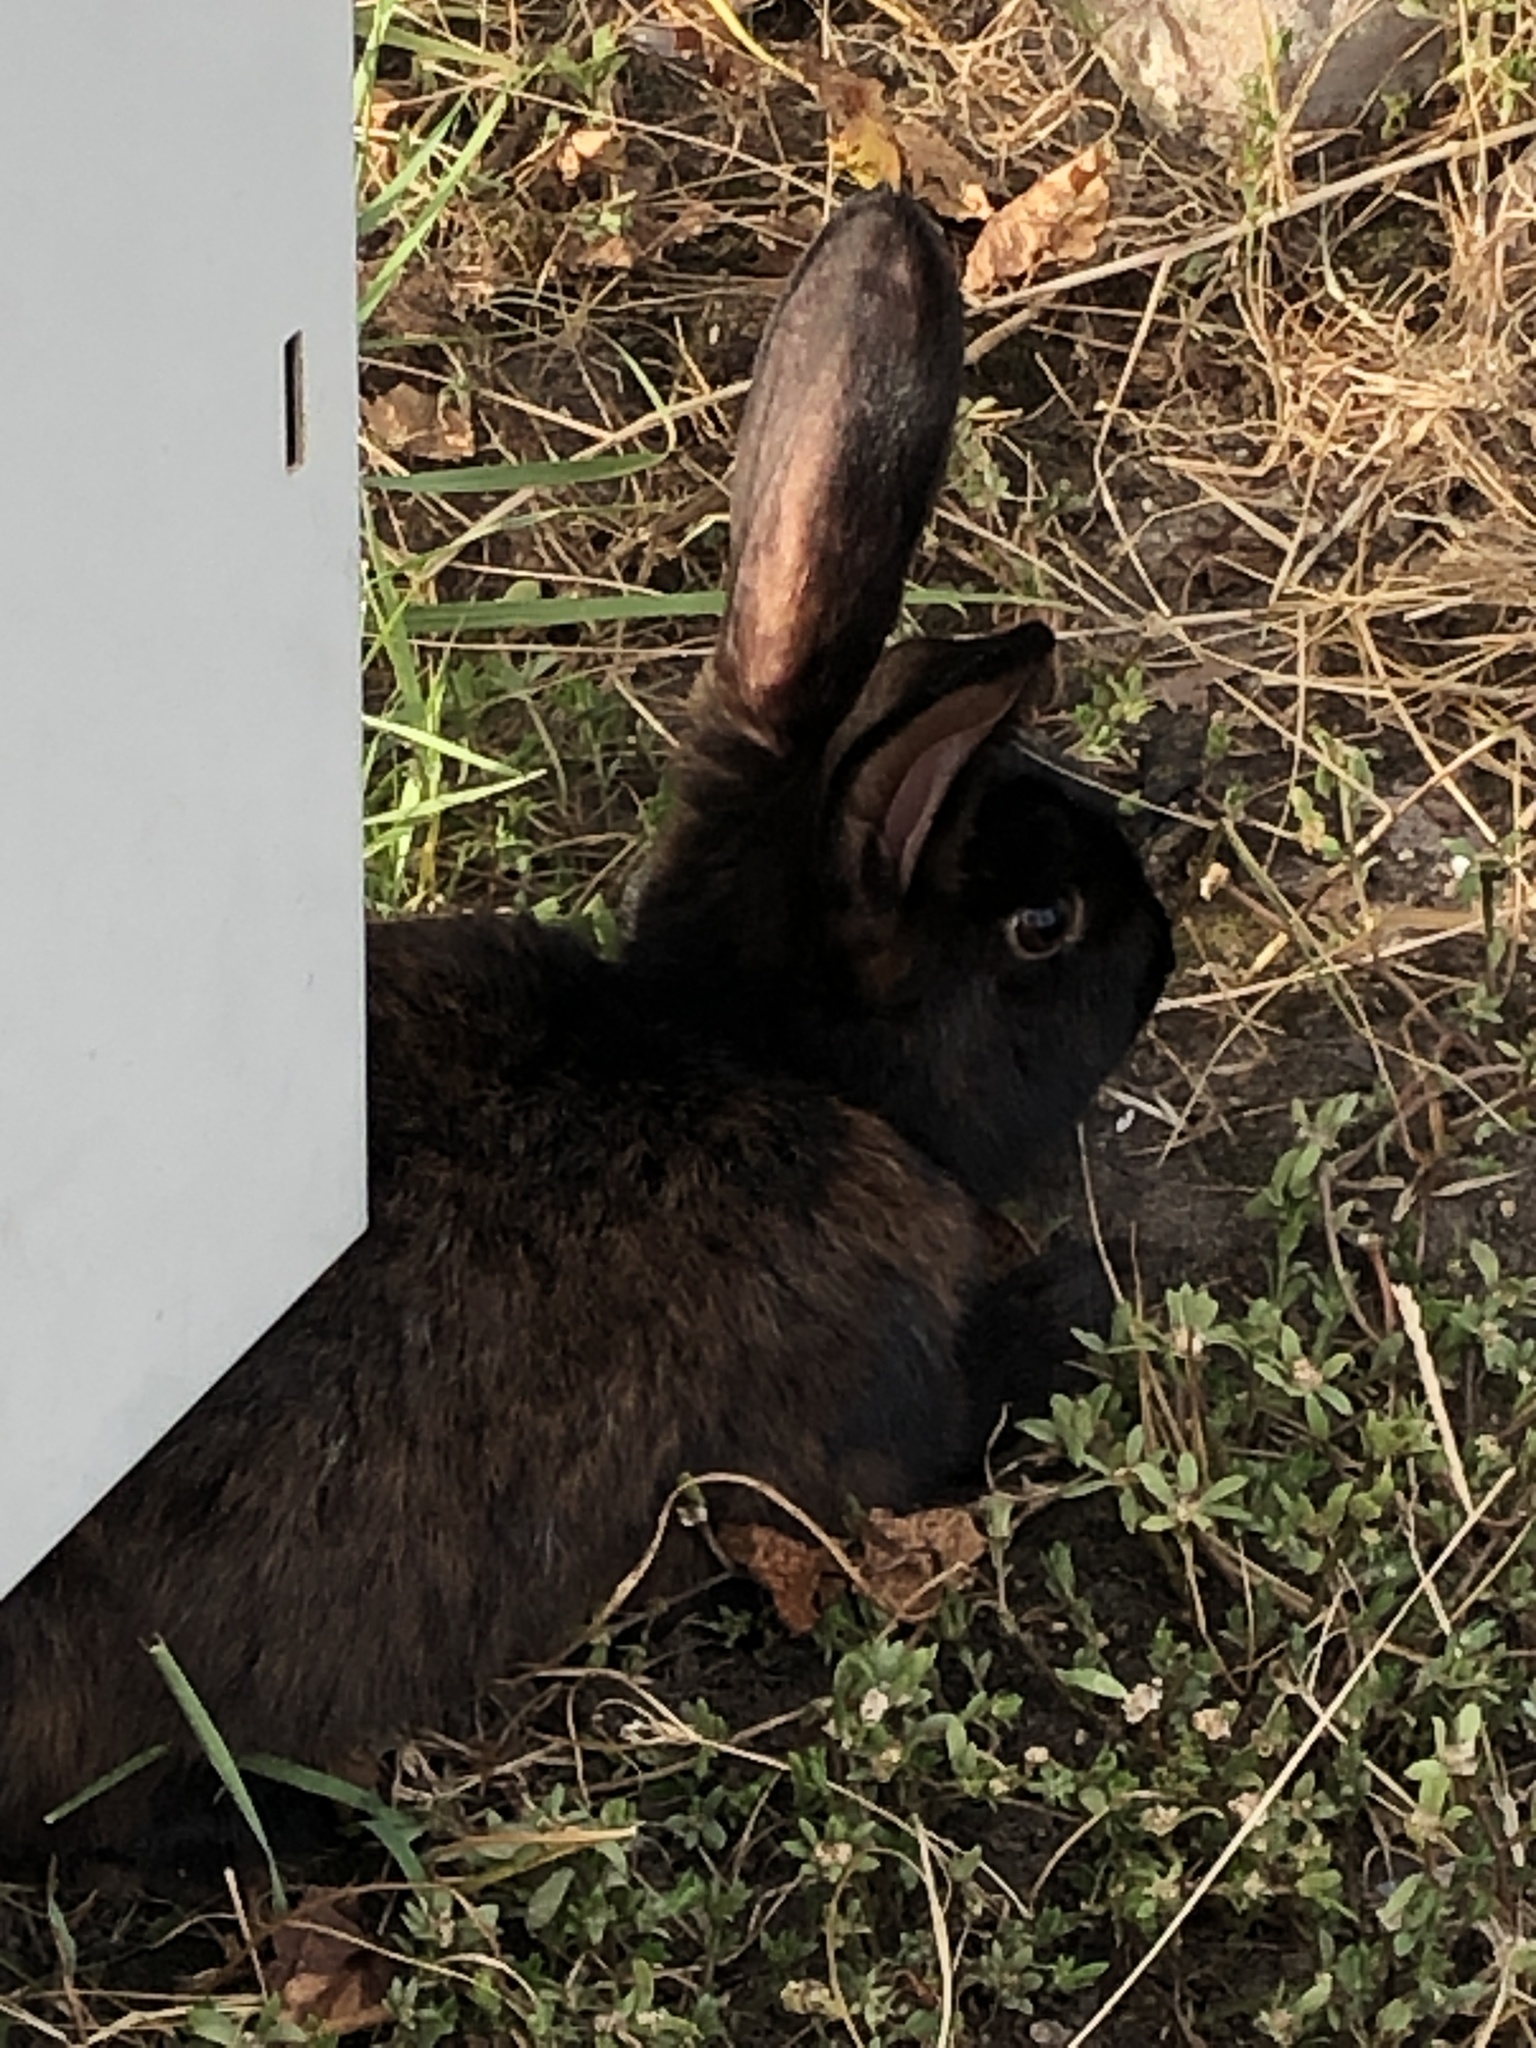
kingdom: Animalia
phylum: Chordata
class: Mammalia
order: Lagomorpha
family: Leporidae
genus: Oryctolagus
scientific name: Oryctolagus cuniculus
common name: European rabbit
